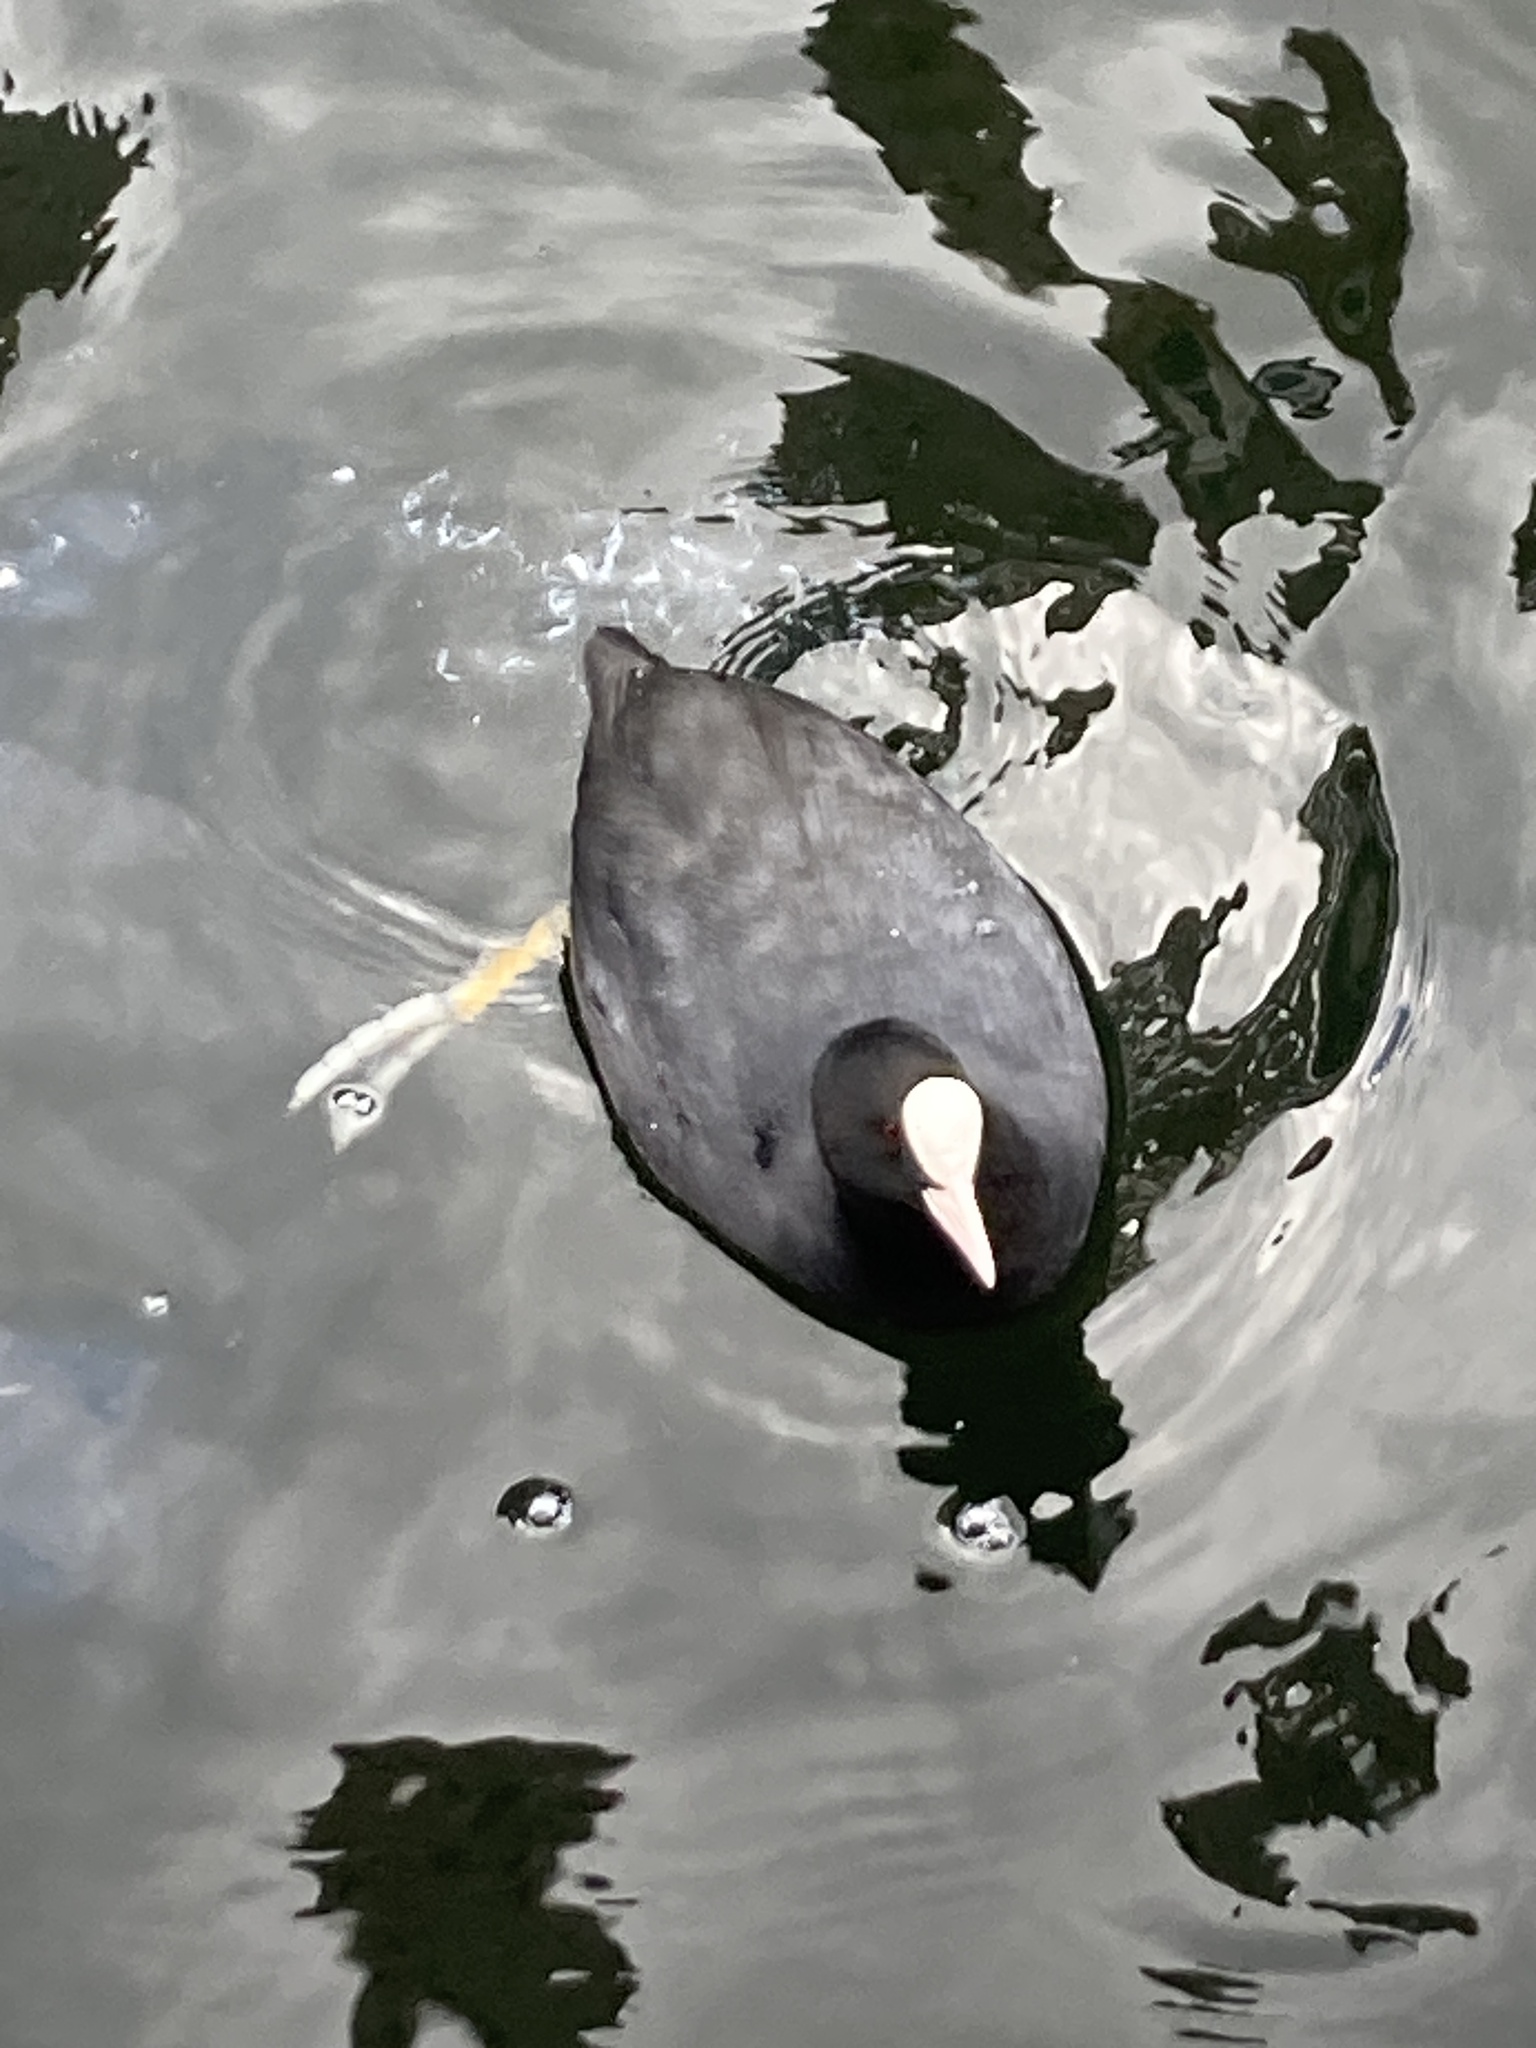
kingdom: Animalia
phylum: Chordata
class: Aves
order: Gruiformes
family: Rallidae
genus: Fulica
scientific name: Fulica atra
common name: Eurasian coot
